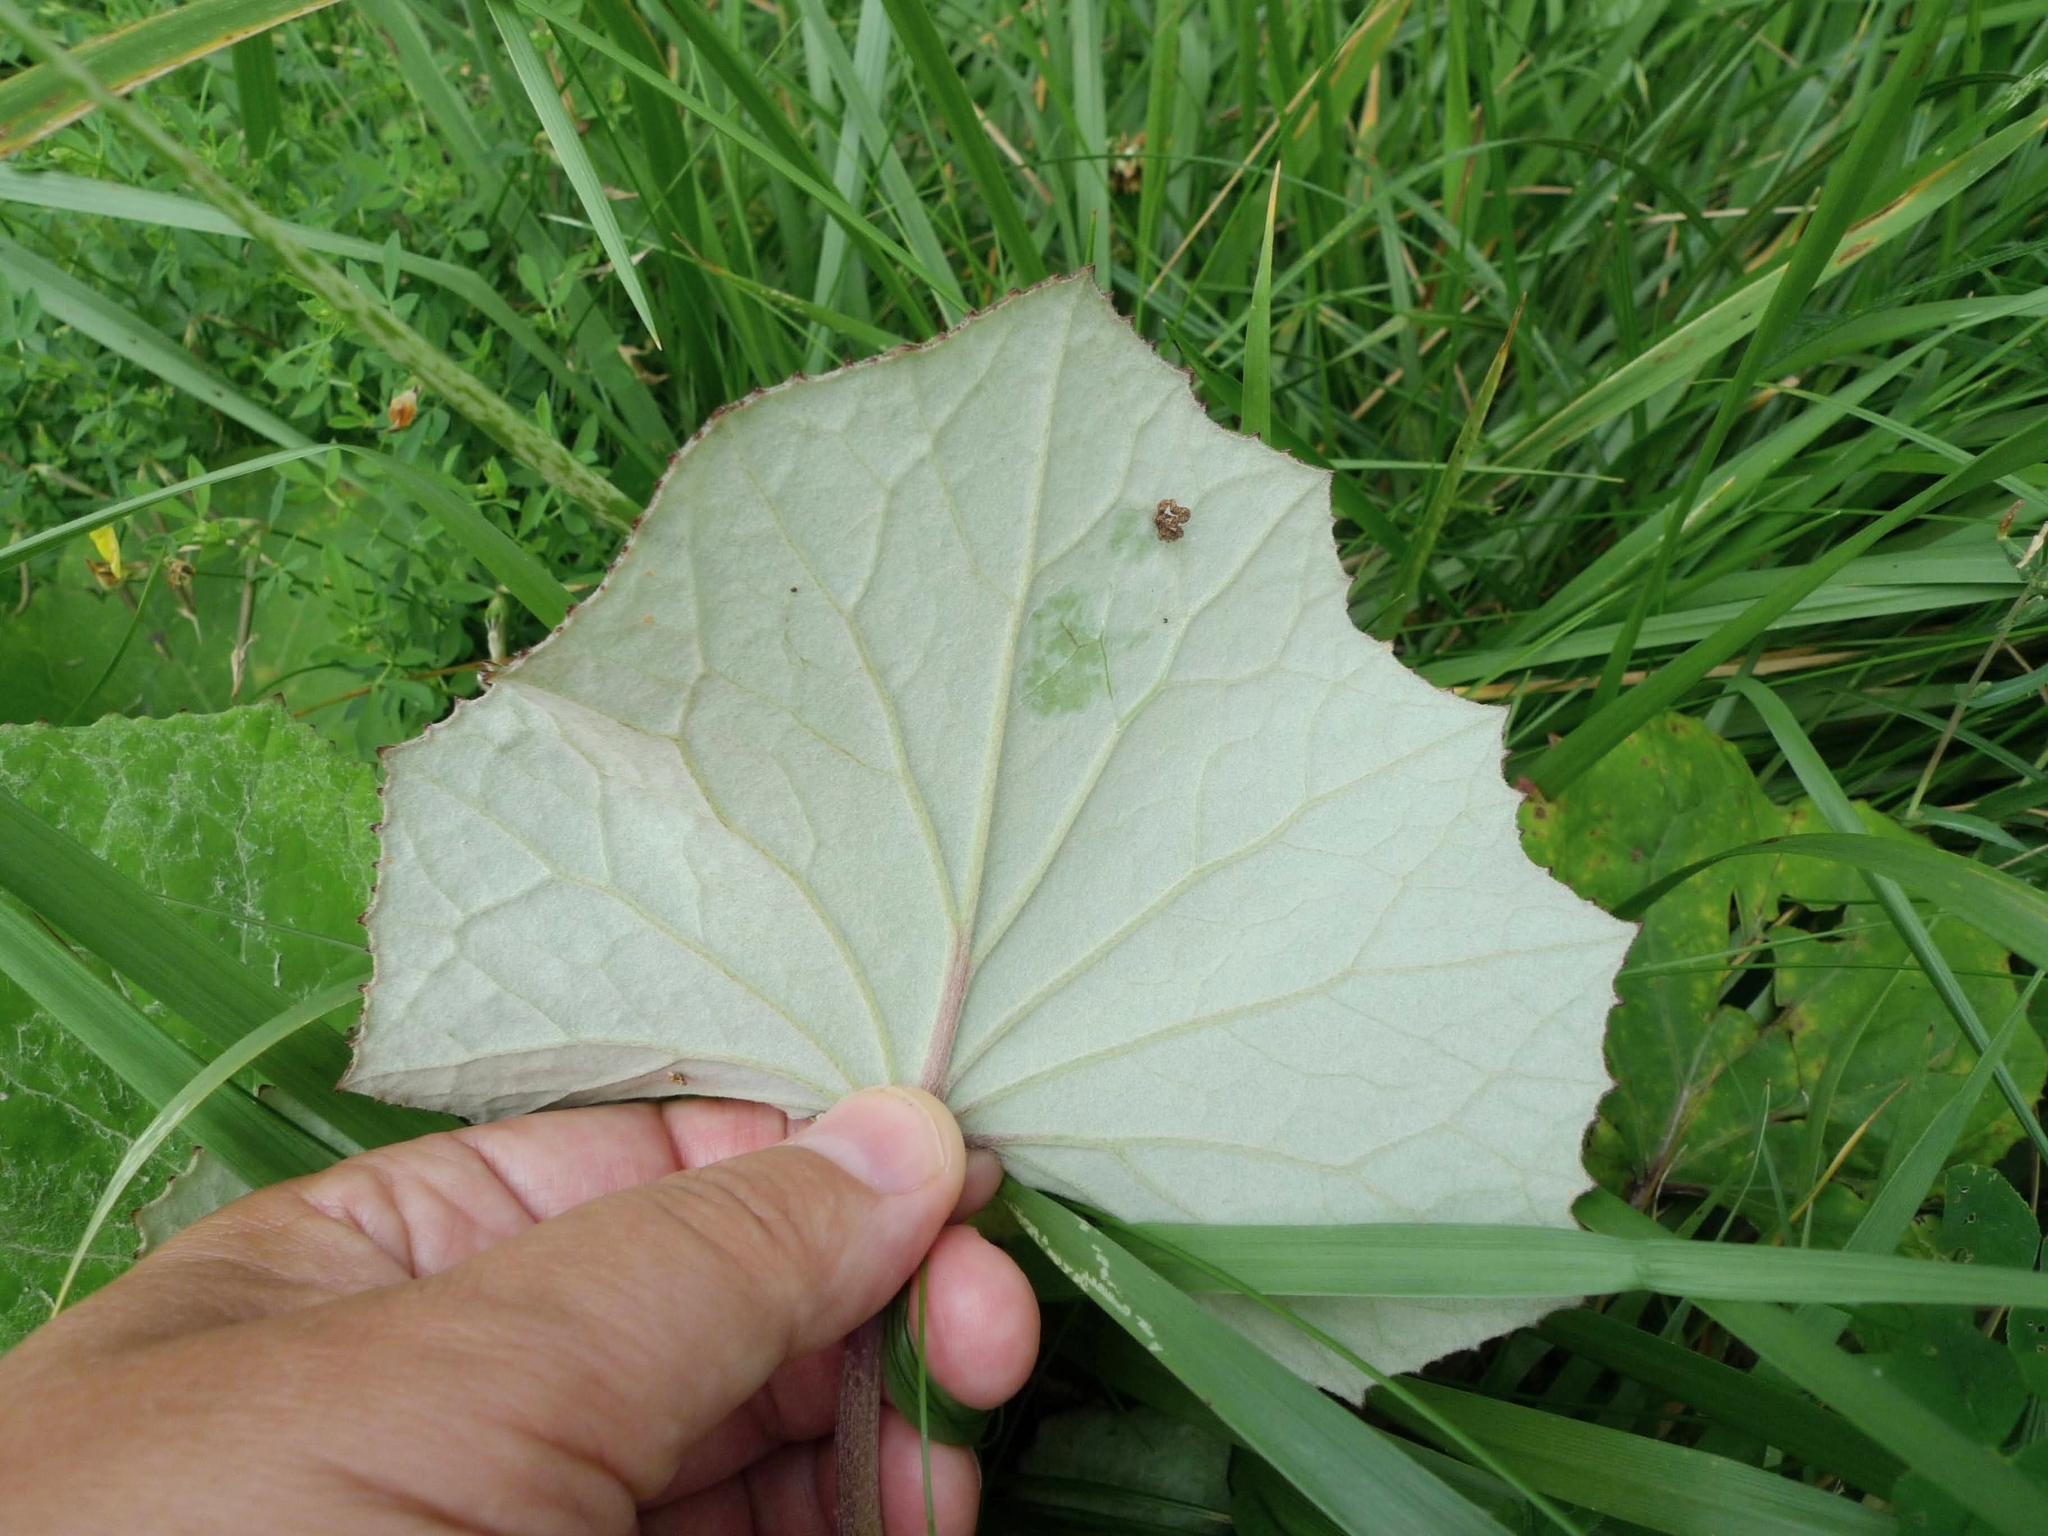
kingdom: Plantae
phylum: Tracheophyta
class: Magnoliopsida
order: Asterales
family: Asteraceae
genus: Tussilago
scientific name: Tussilago farfara
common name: Coltsfoot
